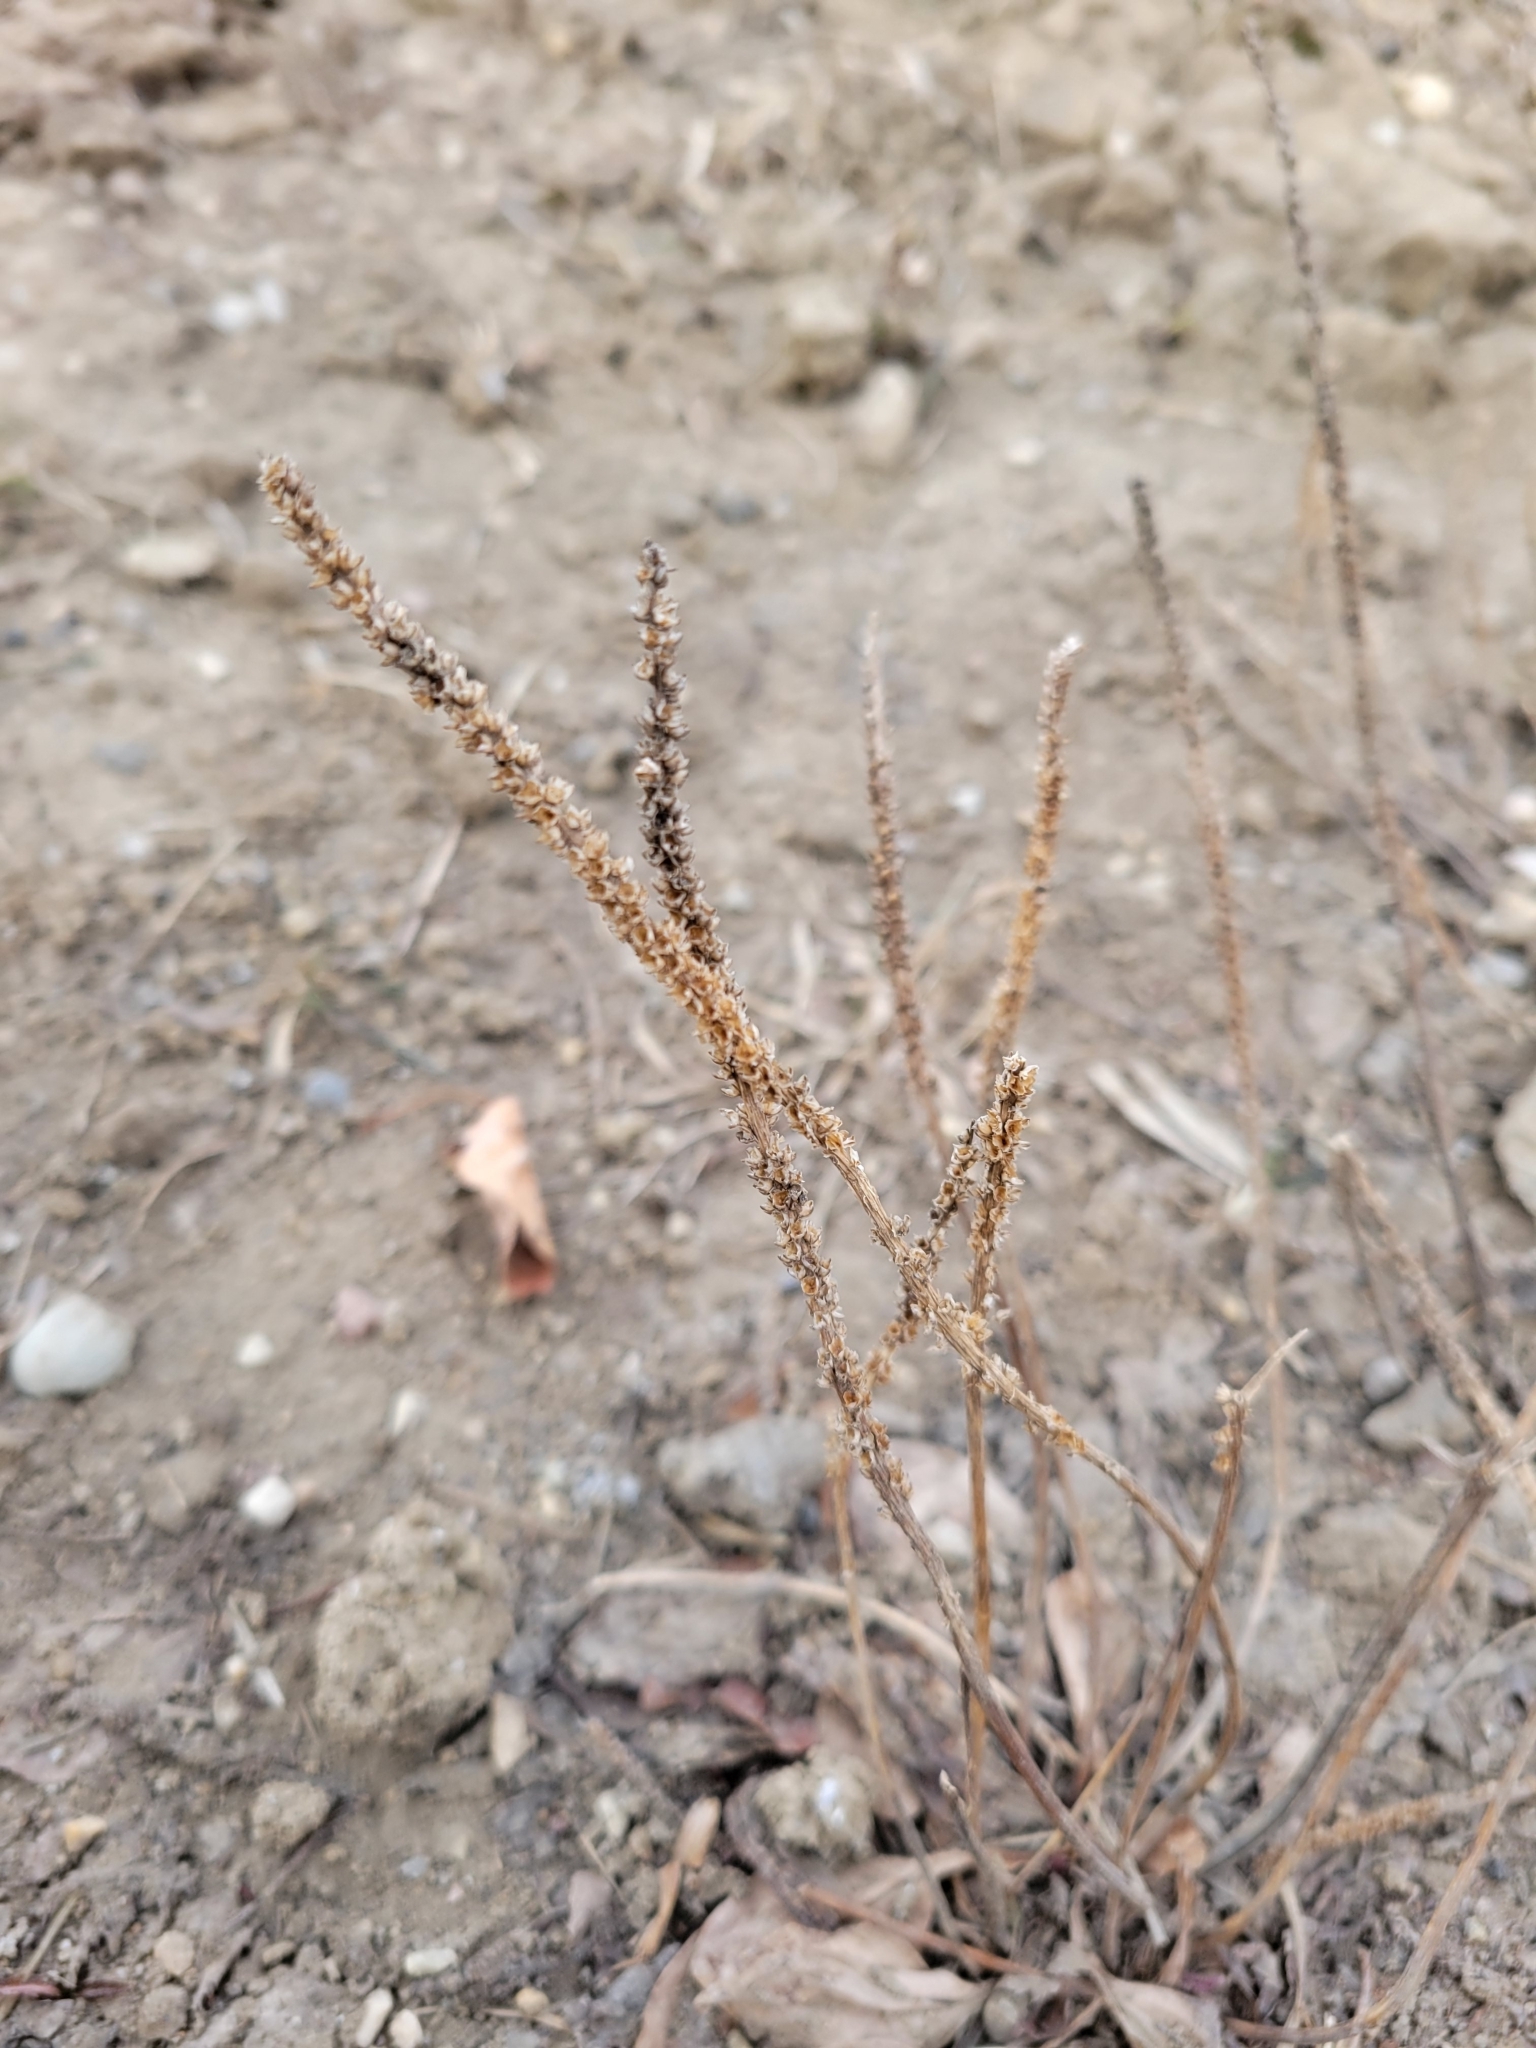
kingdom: Plantae
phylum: Tracheophyta
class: Magnoliopsida
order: Lamiales
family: Plantaginaceae
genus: Plantago
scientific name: Plantago major
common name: Common plantain
